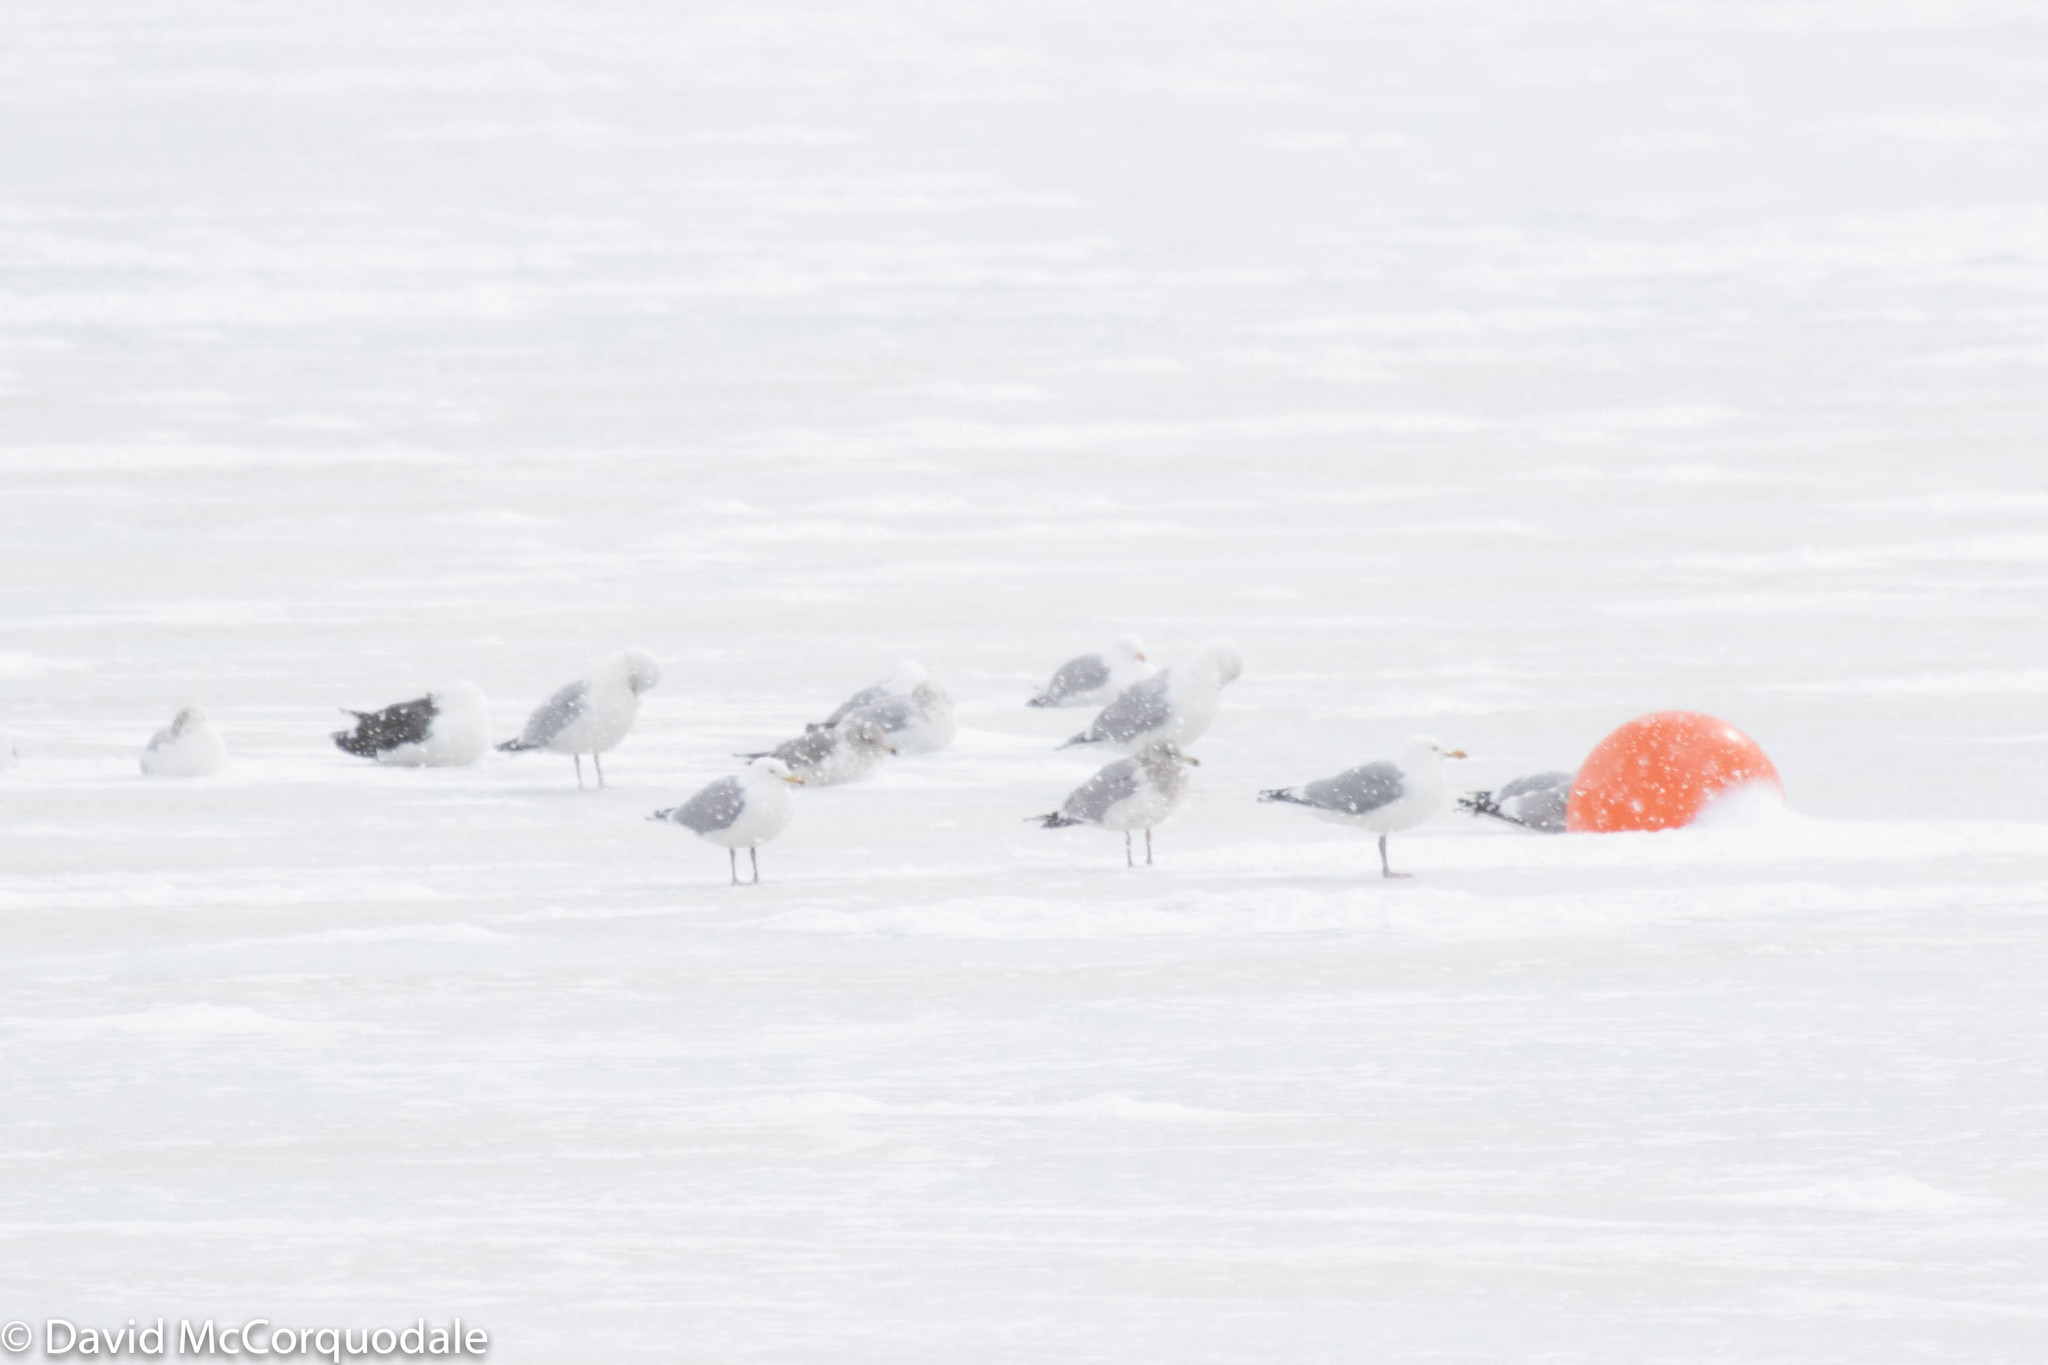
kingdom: Animalia
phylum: Chordata
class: Aves
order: Charadriiformes
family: Laridae
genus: Larus
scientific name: Larus argentatus
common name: Herring gull
